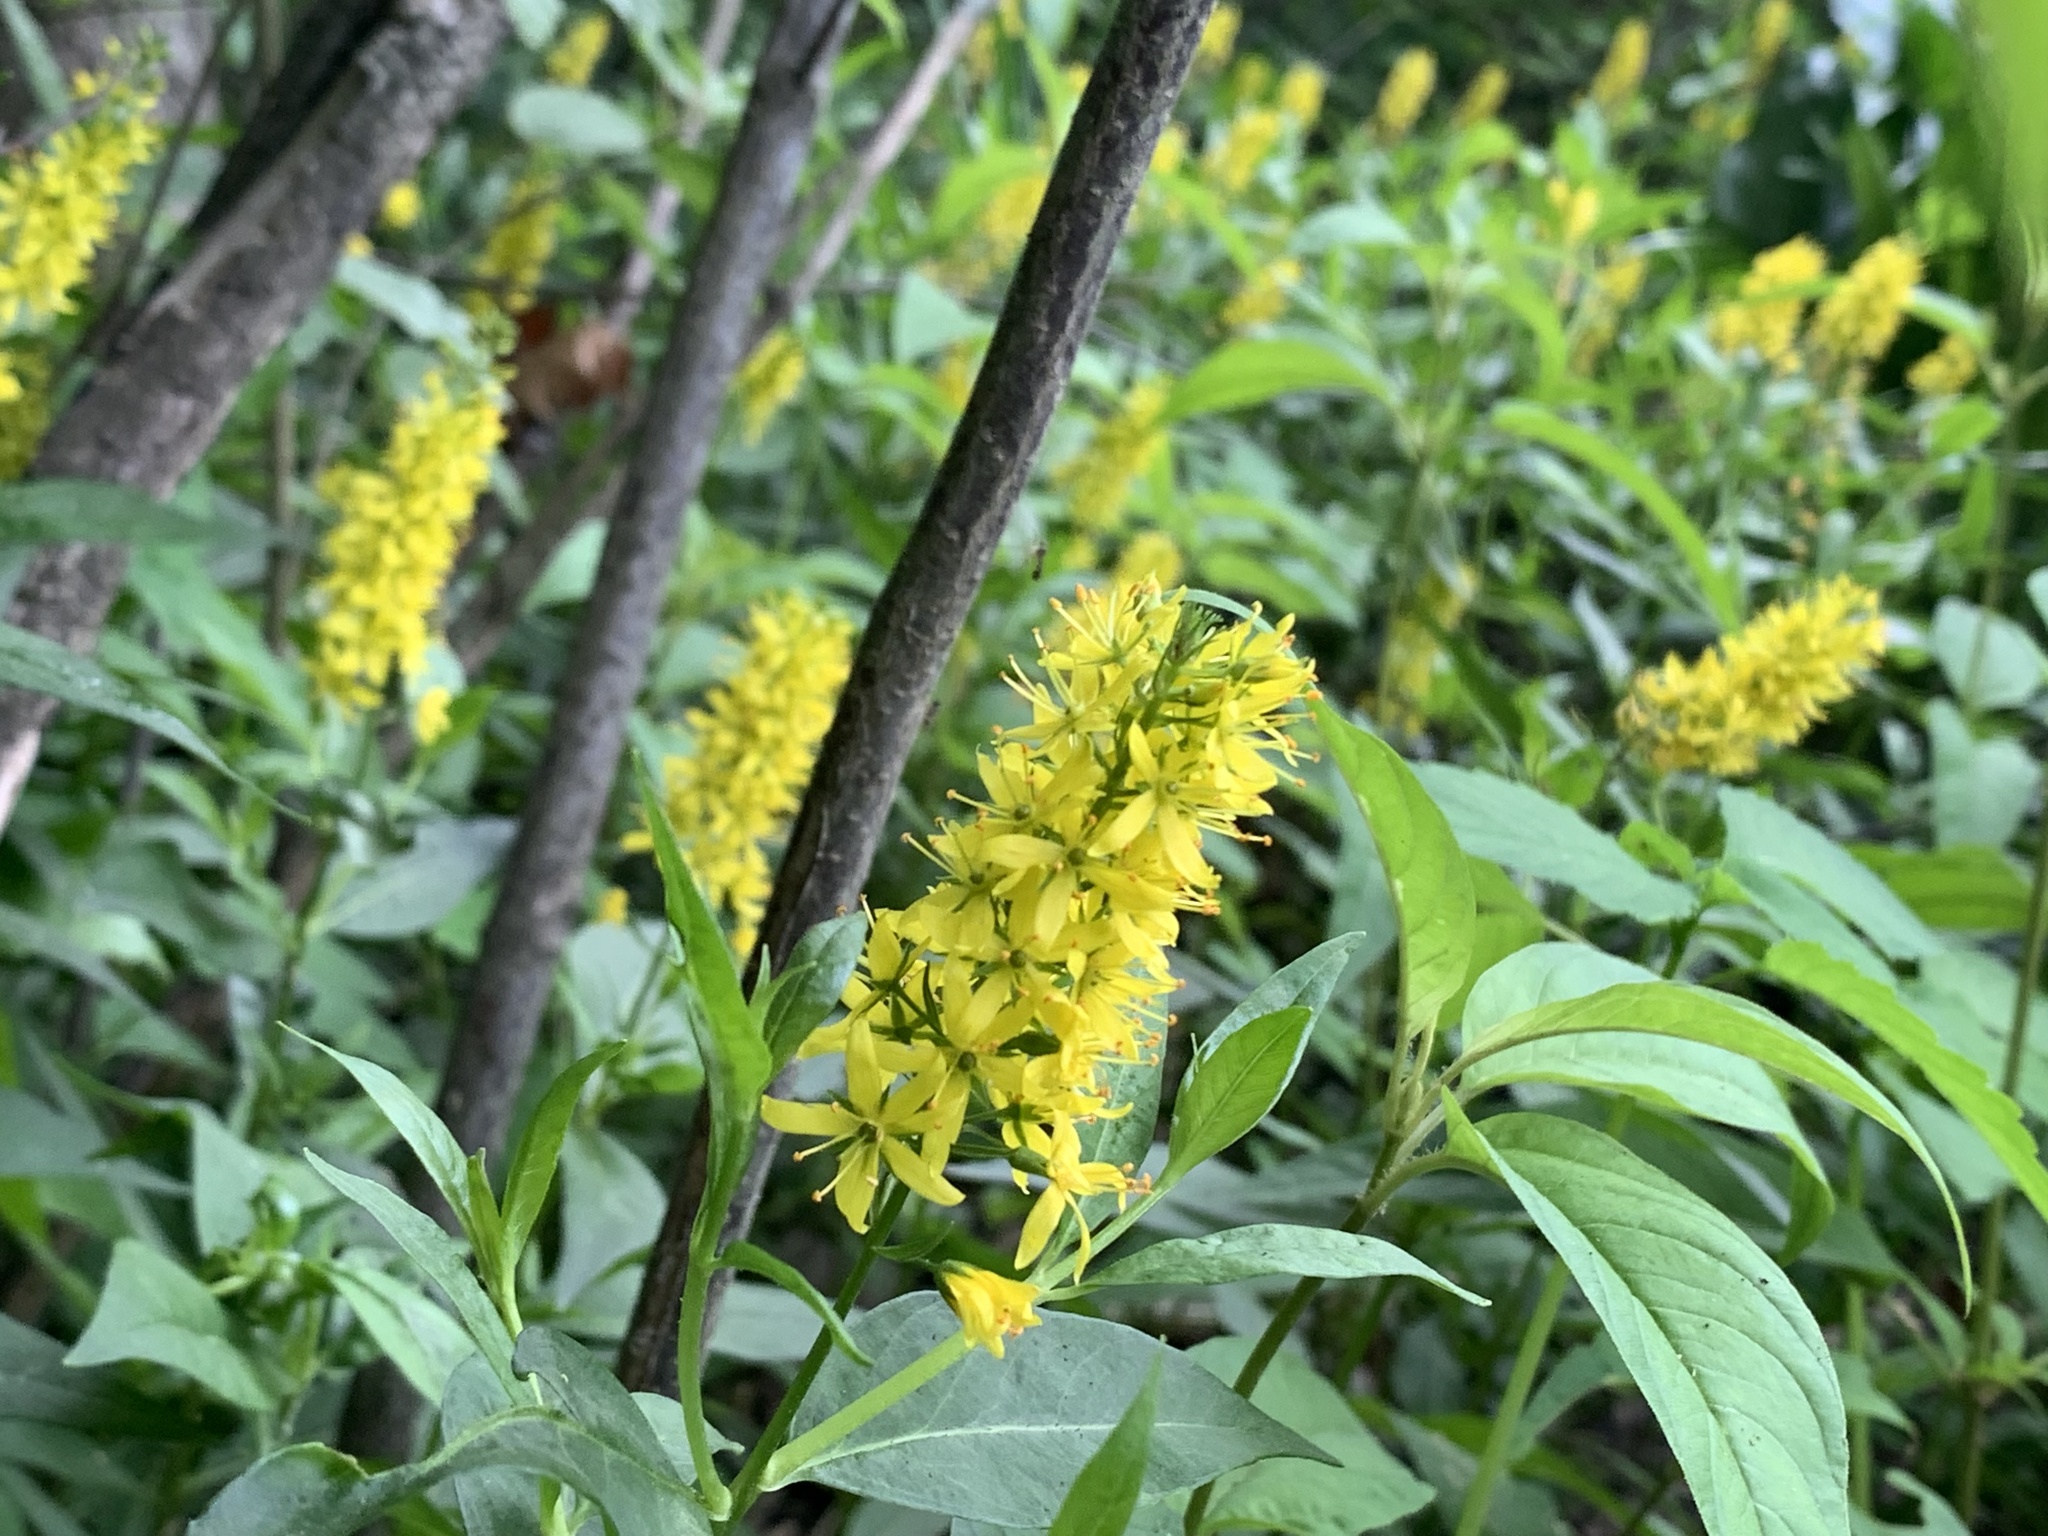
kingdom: Plantae
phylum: Tracheophyta
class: Magnoliopsida
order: Ericales
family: Primulaceae
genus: Lysimachia
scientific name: Lysimachia terrestris
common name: Lake loosestrife
